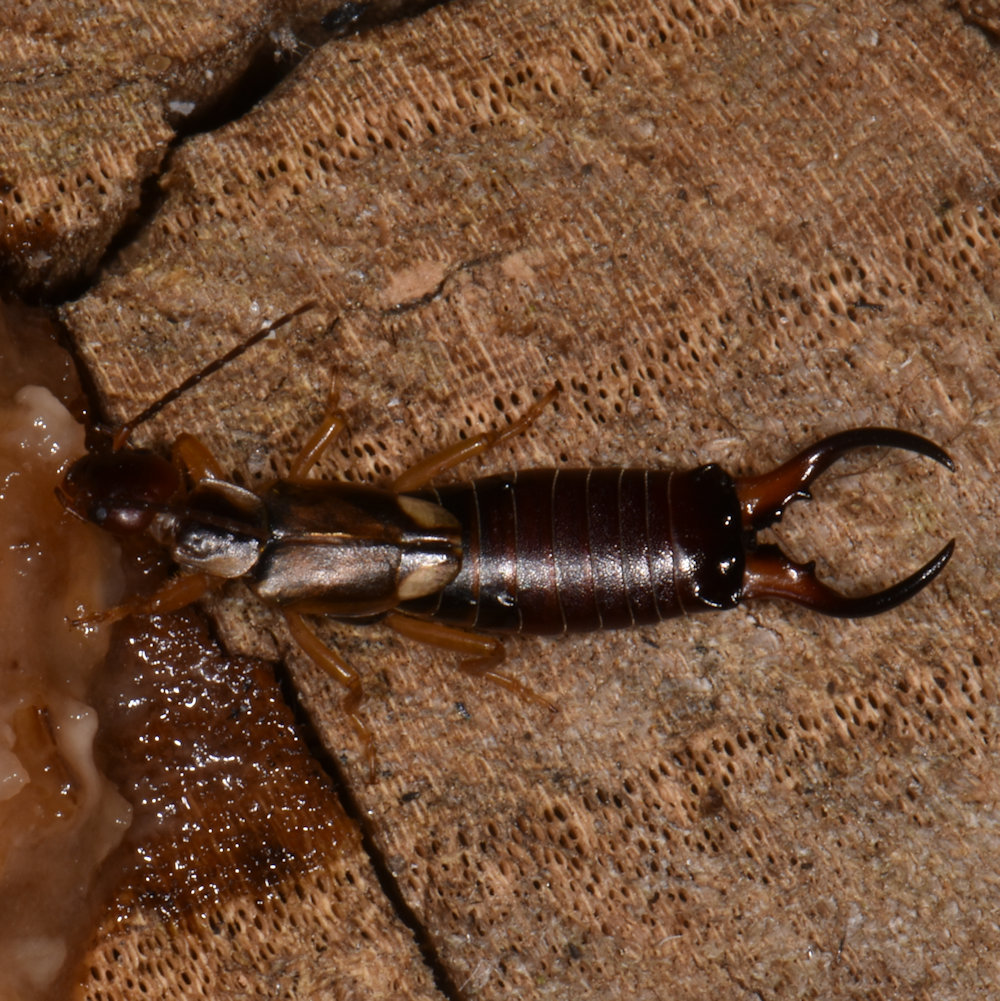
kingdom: Animalia
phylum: Arthropoda
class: Insecta
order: Dermaptera
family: Forficulidae
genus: Forficula
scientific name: Forficula
